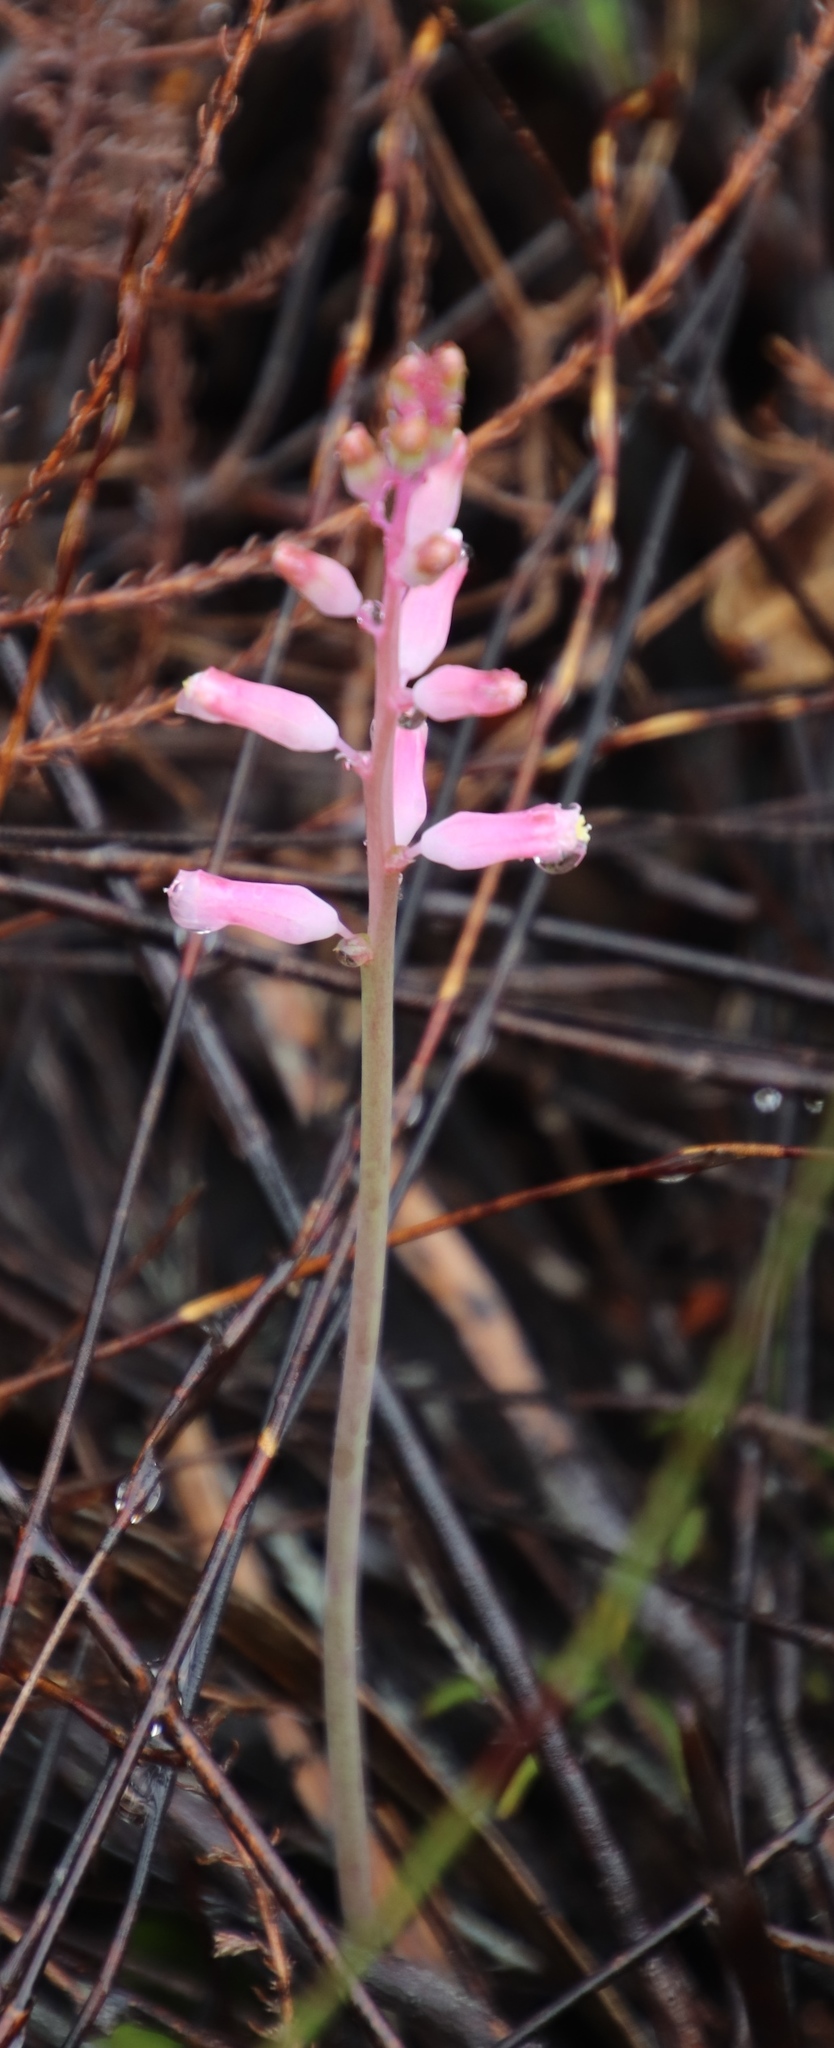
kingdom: Plantae
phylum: Tracheophyta
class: Liliopsida
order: Asparagales
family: Asparagaceae
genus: Lachenalia
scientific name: Lachenalia rosea
